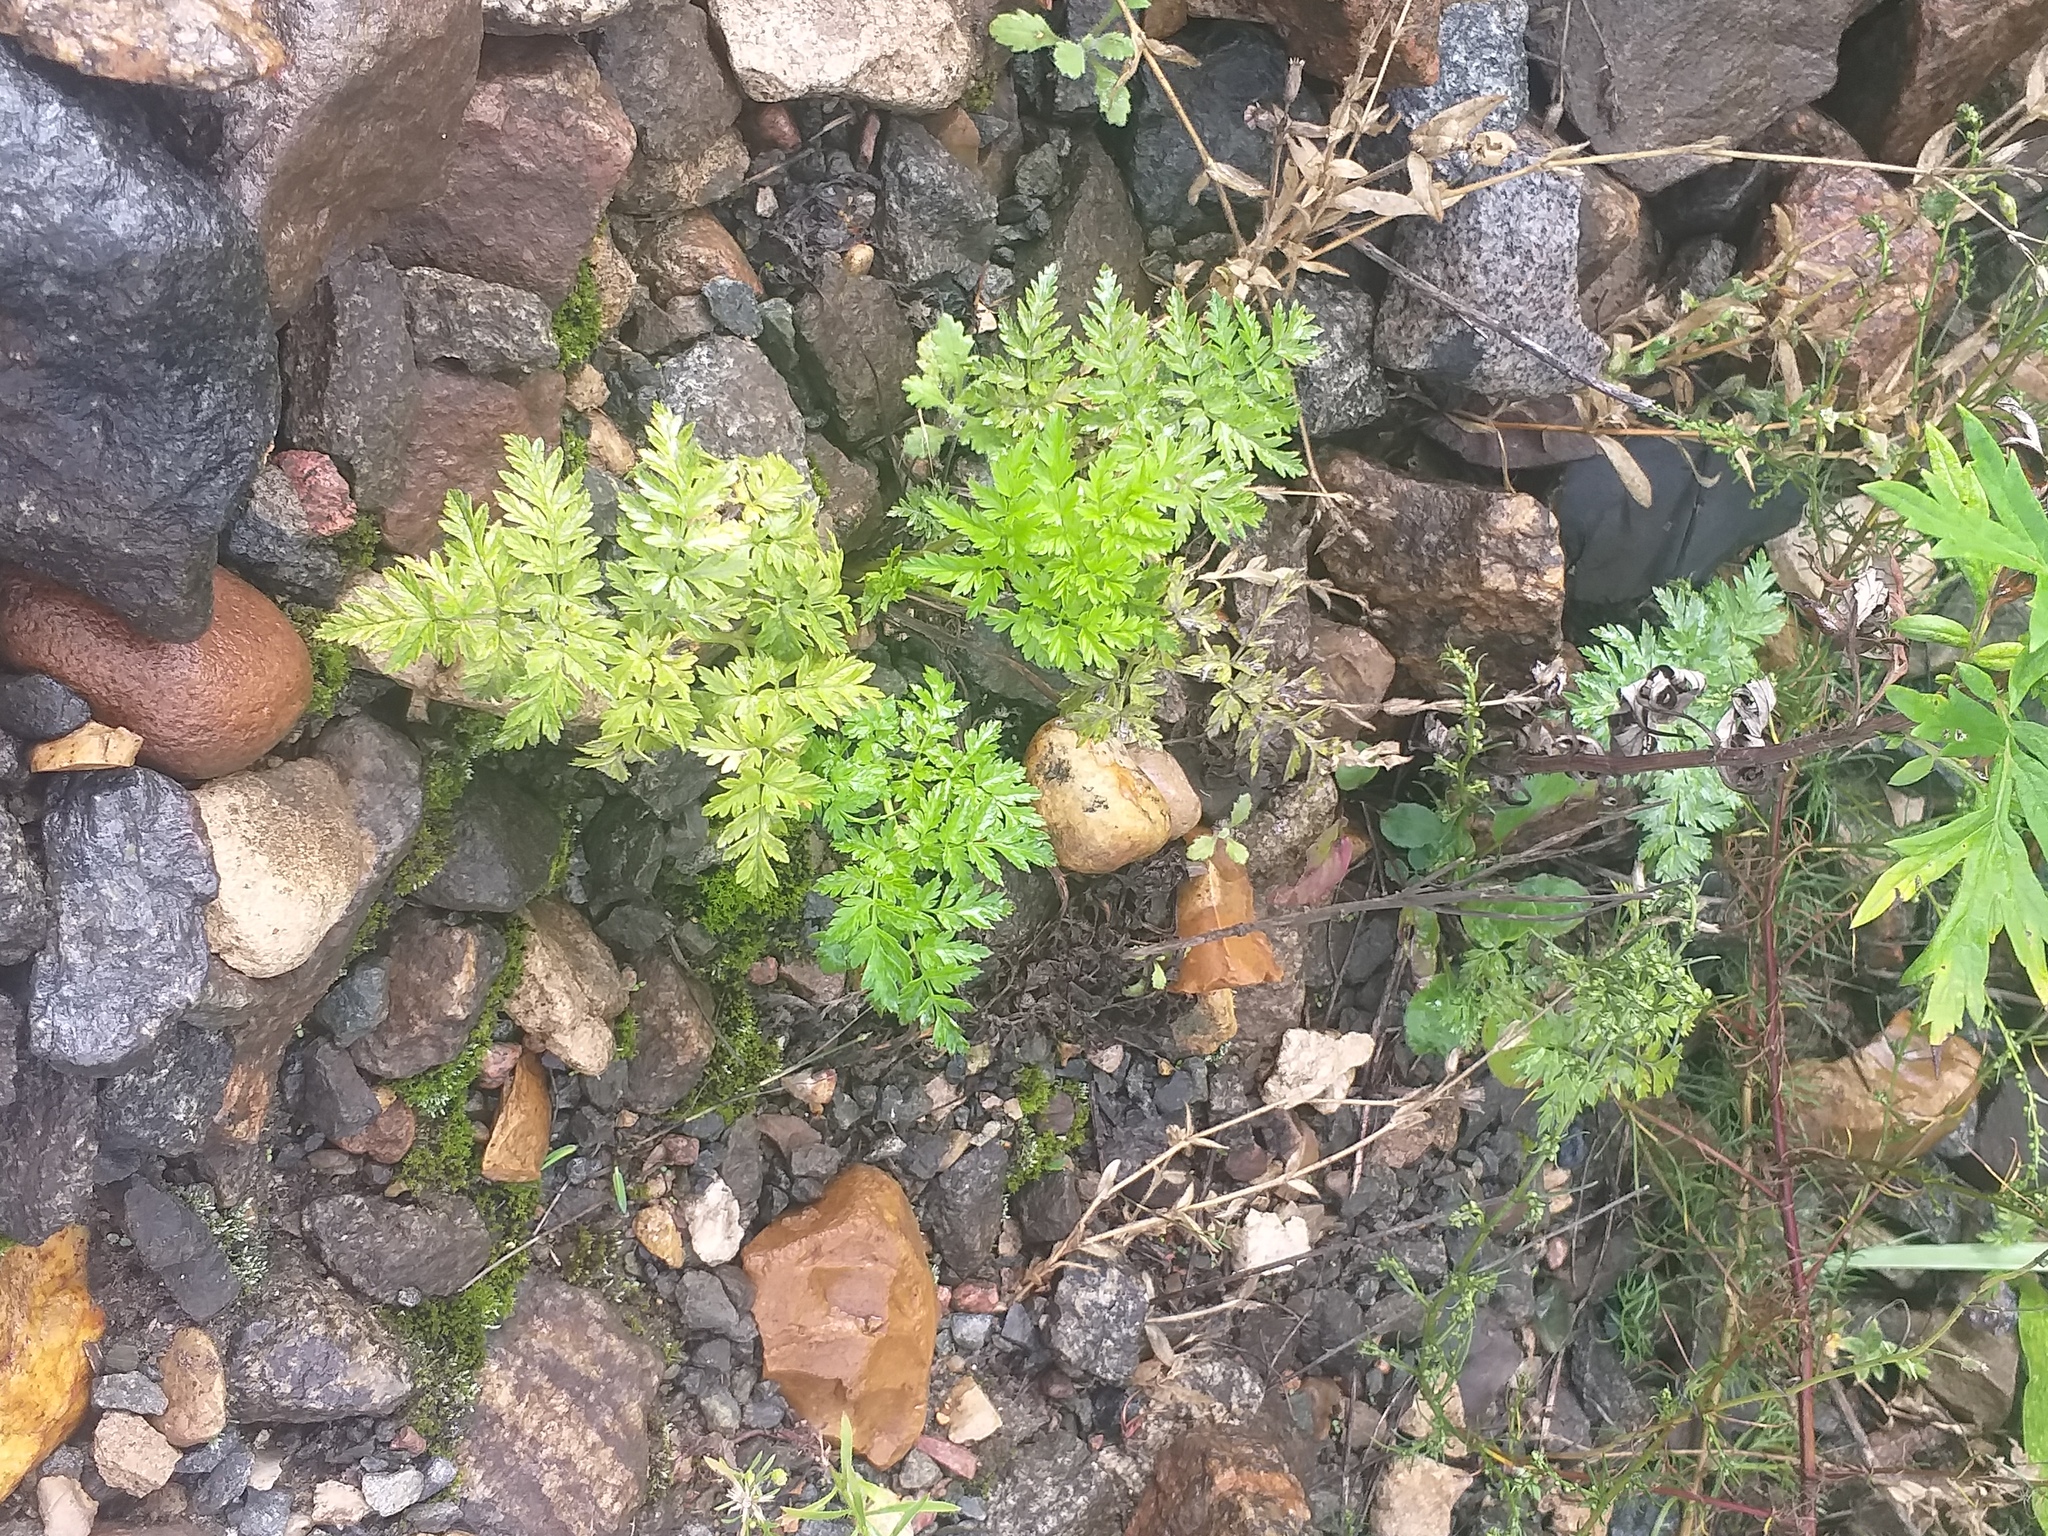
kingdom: Plantae
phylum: Tracheophyta
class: Magnoliopsida
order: Apiales
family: Apiaceae
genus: Anthriscus
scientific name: Anthriscus sylvestris
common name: Cow parsley
